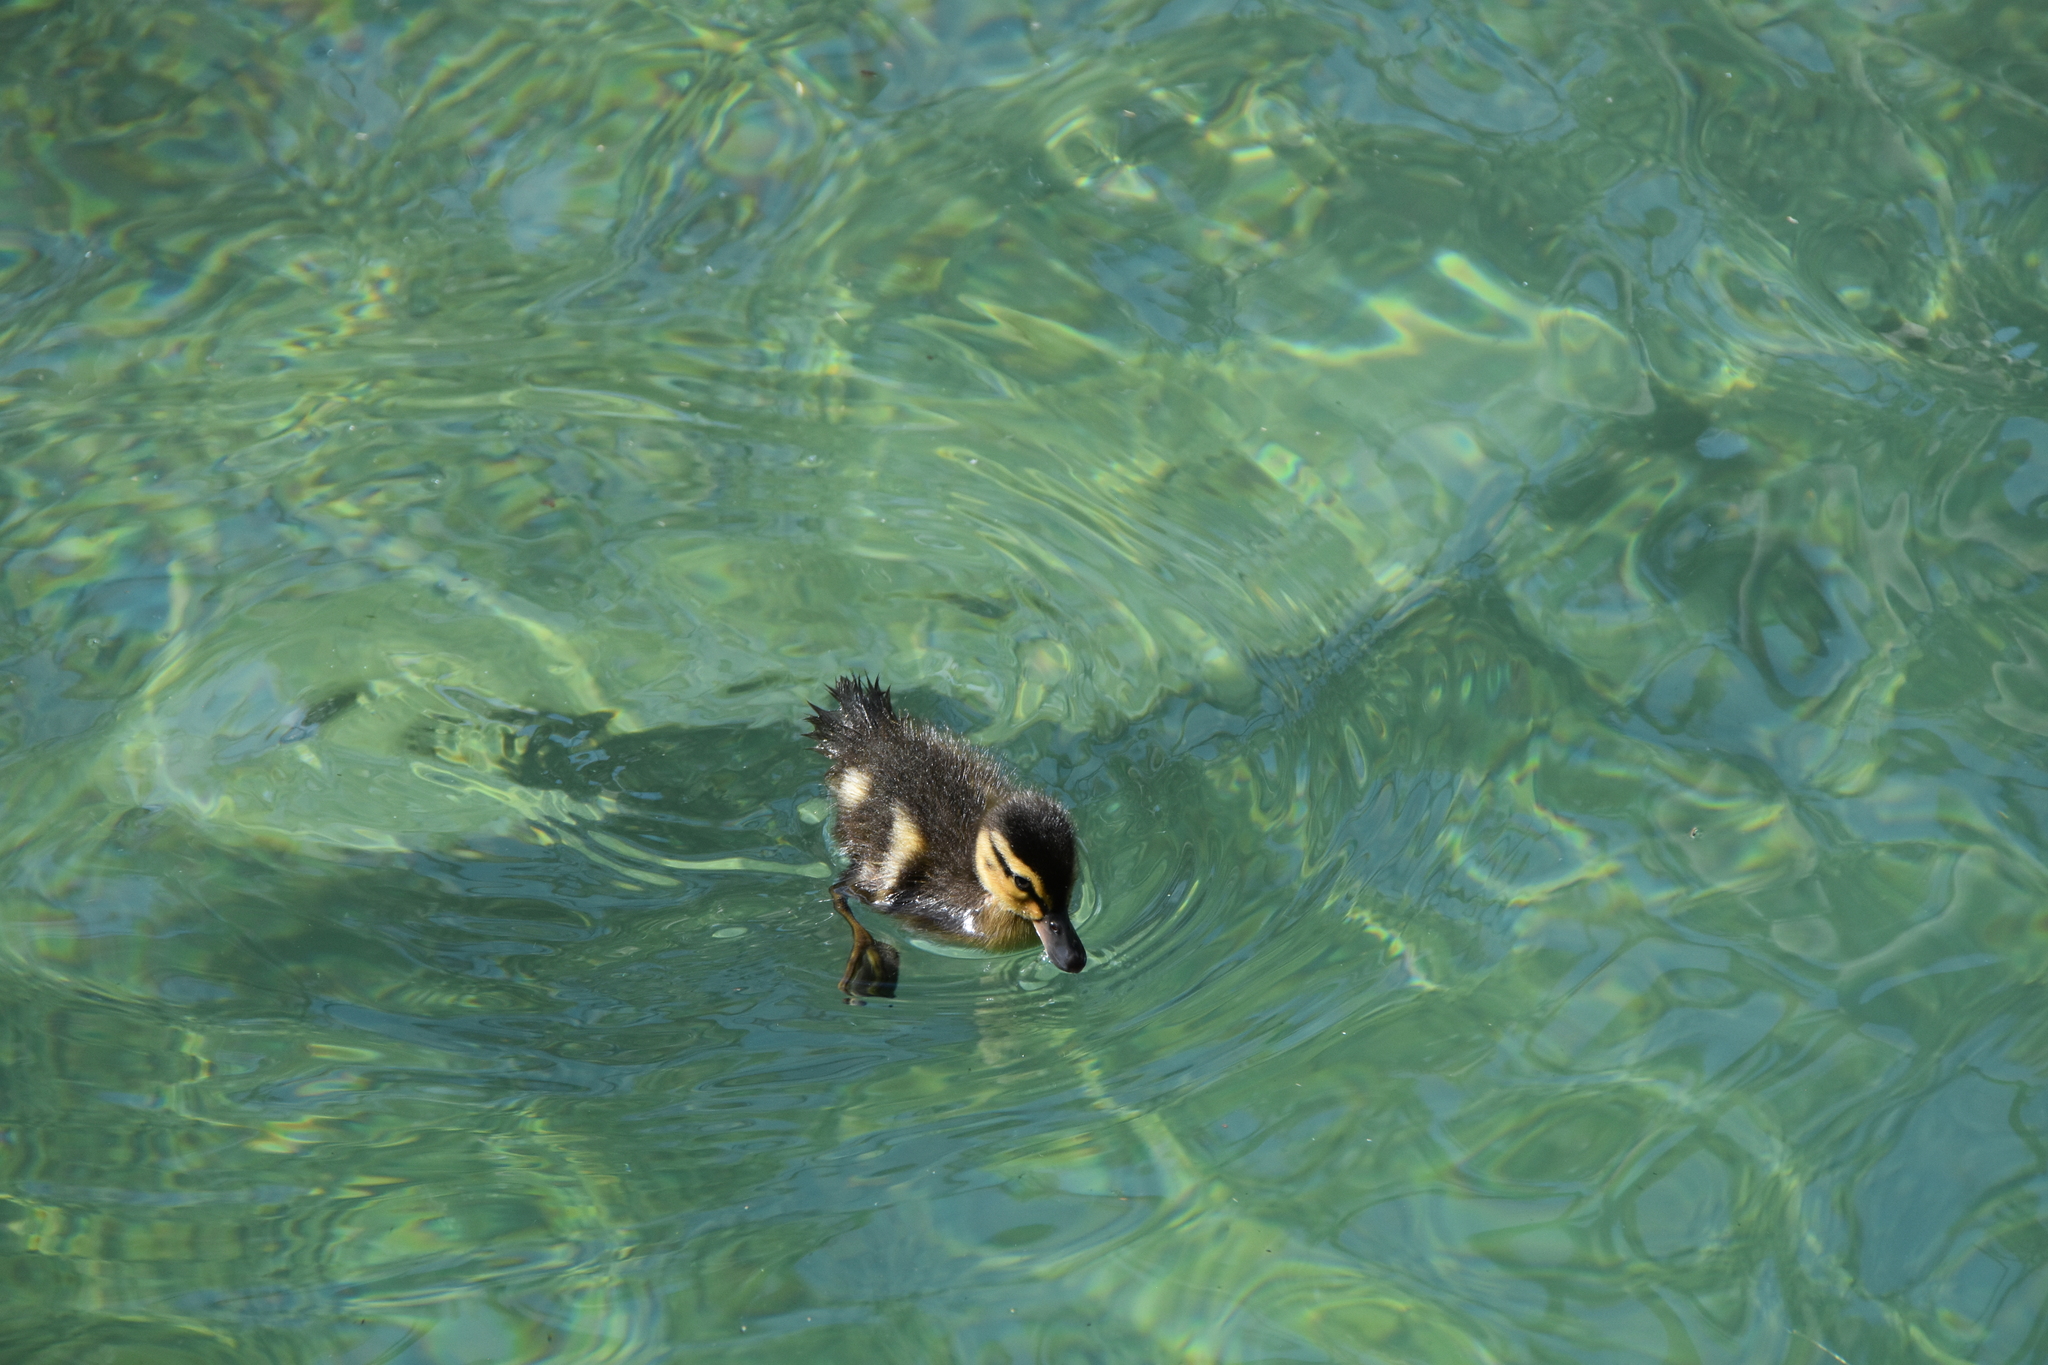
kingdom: Animalia
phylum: Chordata
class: Aves
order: Anseriformes
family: Anatidae
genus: Anas
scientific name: Anas platyrhynchos
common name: Mallard
